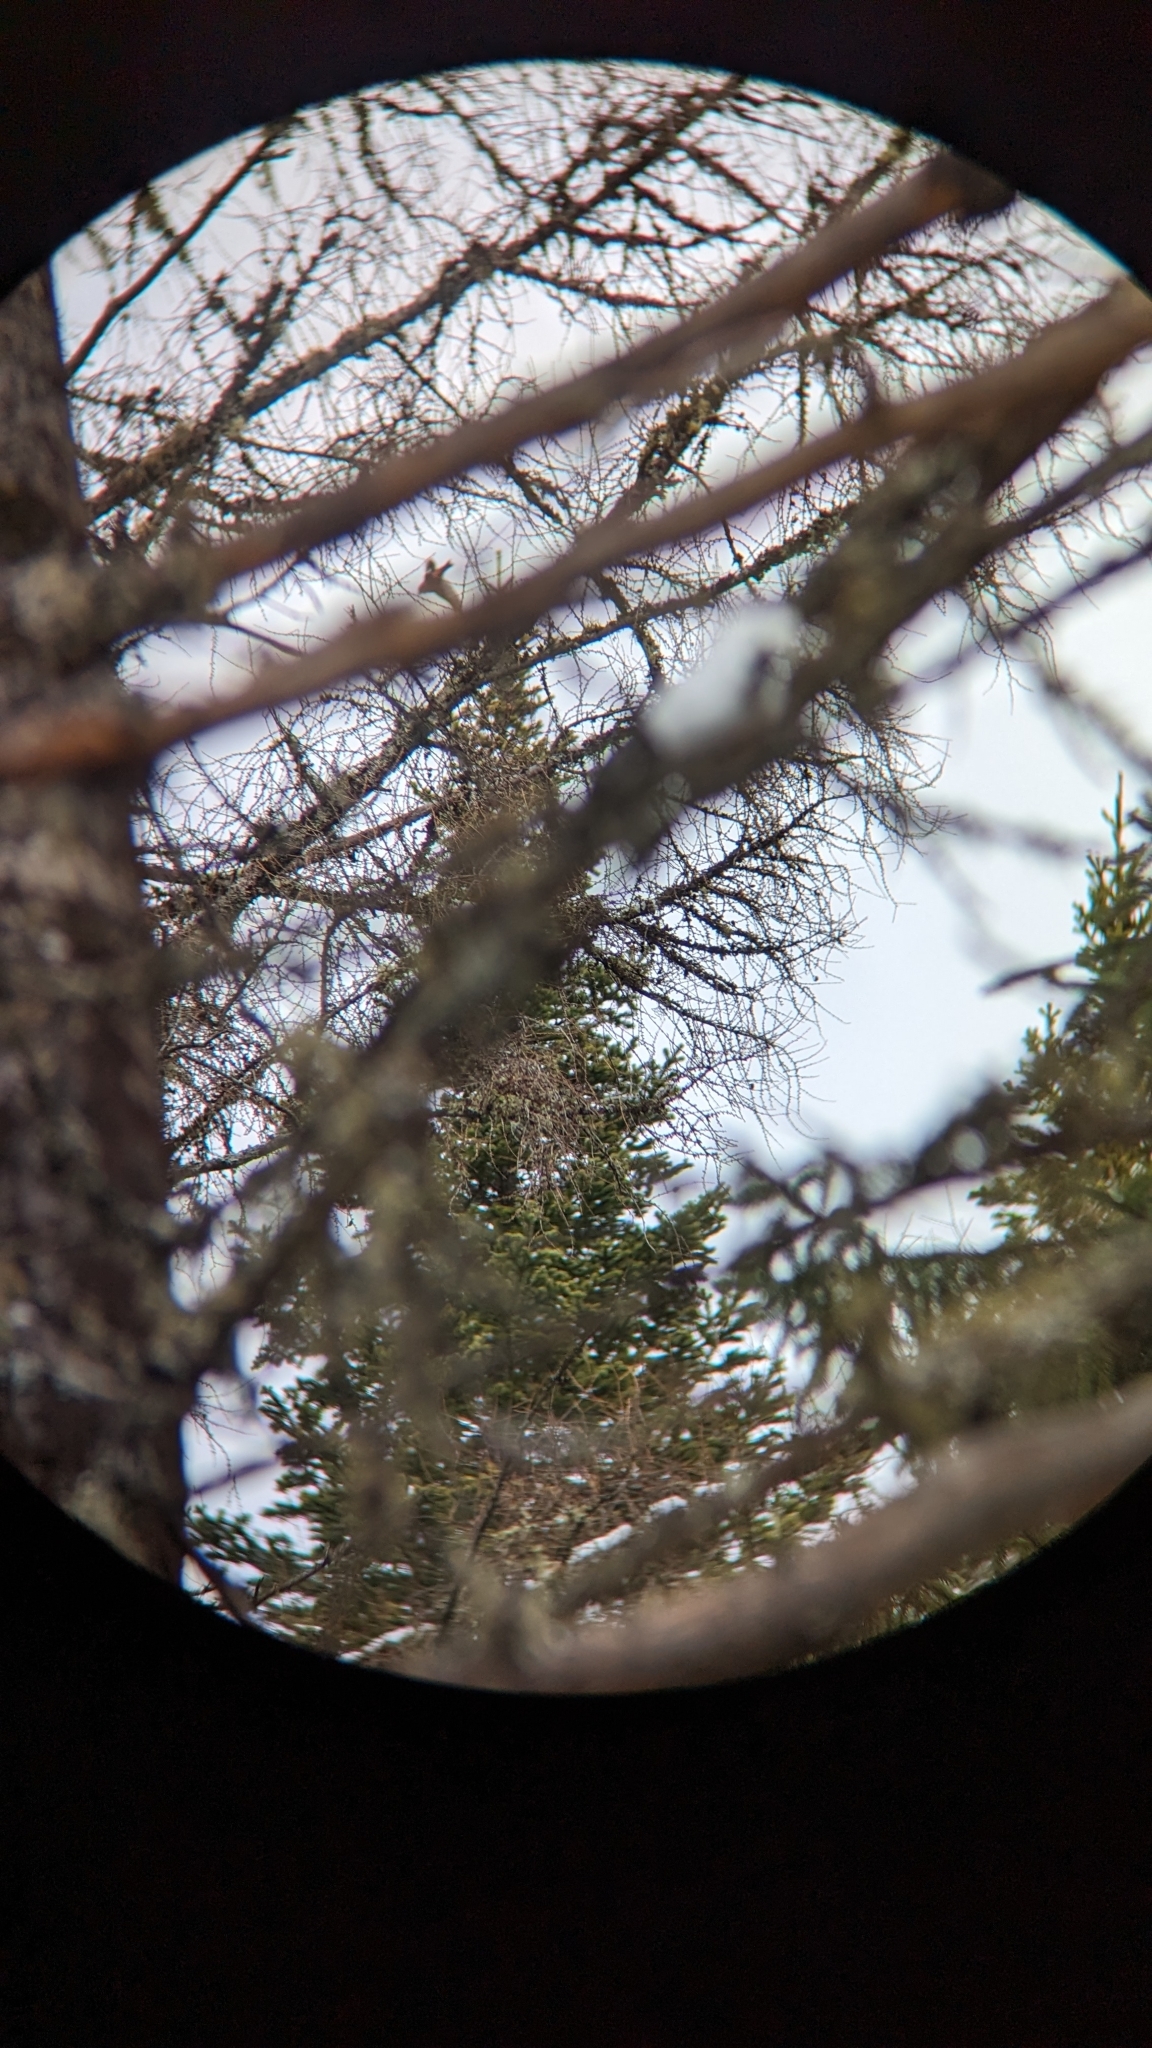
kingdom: Animalia
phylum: Chordata
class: Aves
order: Passeriformes
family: Fringillidae
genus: Loxia
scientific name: Loxia leucoptera
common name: Two-barred crossbill
